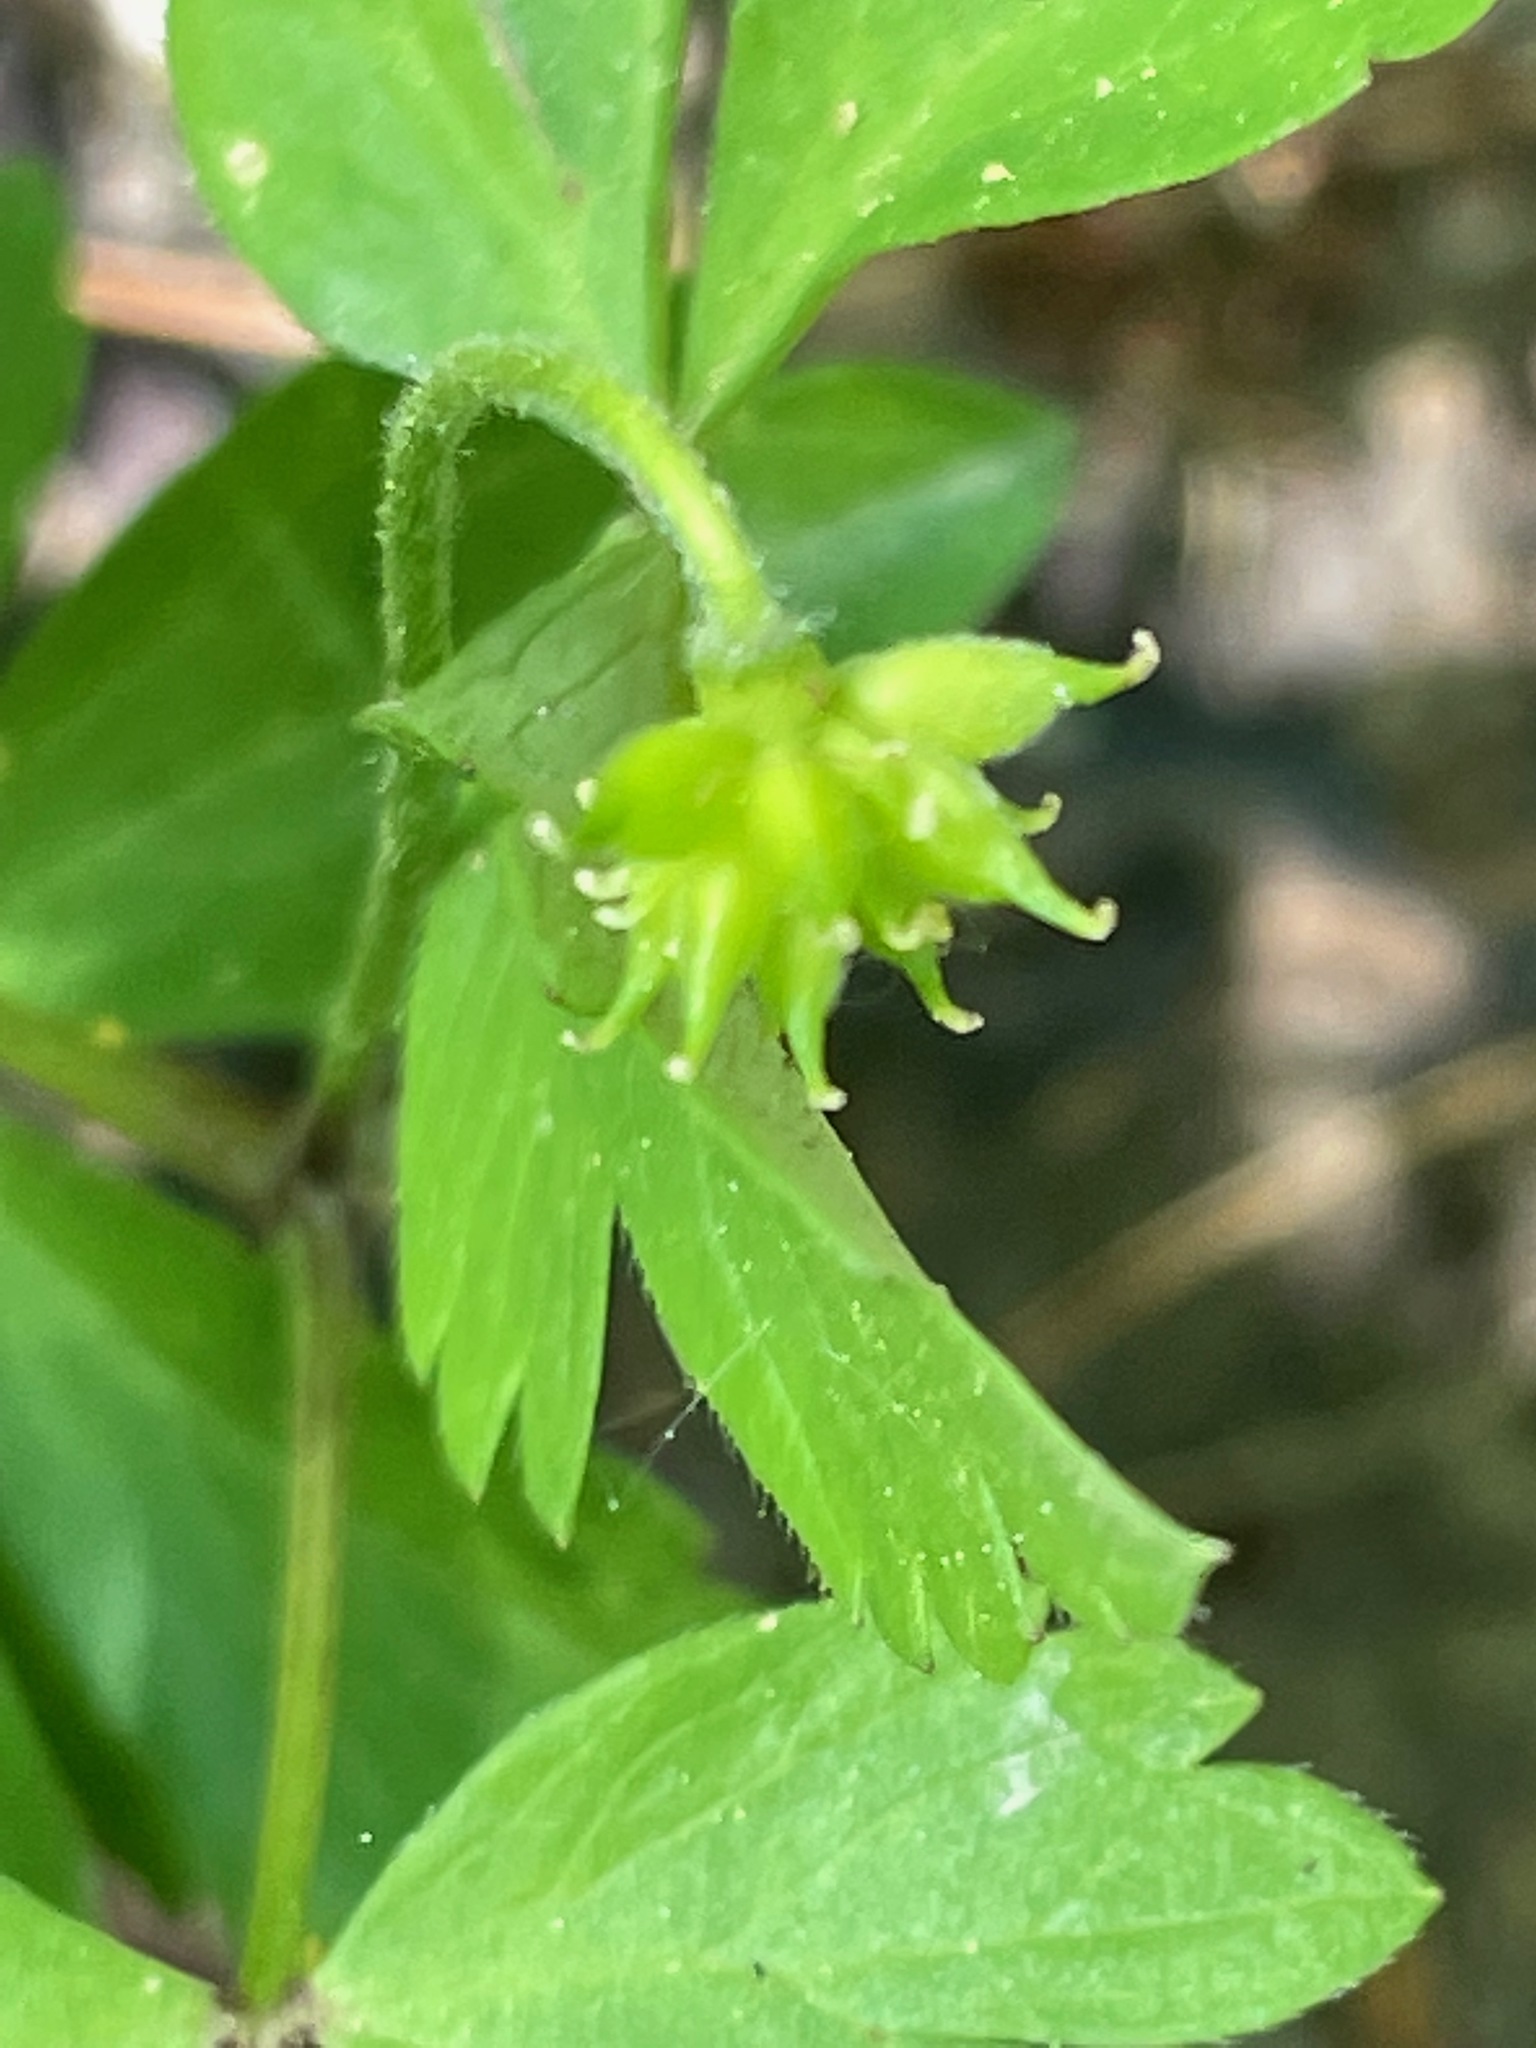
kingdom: Plantae
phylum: Tracheophyta
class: Magnoliopsida
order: Ranunculales
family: Ranunculaceae
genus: Anemone
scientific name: Anemone quinquefolia
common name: Wood anemone
